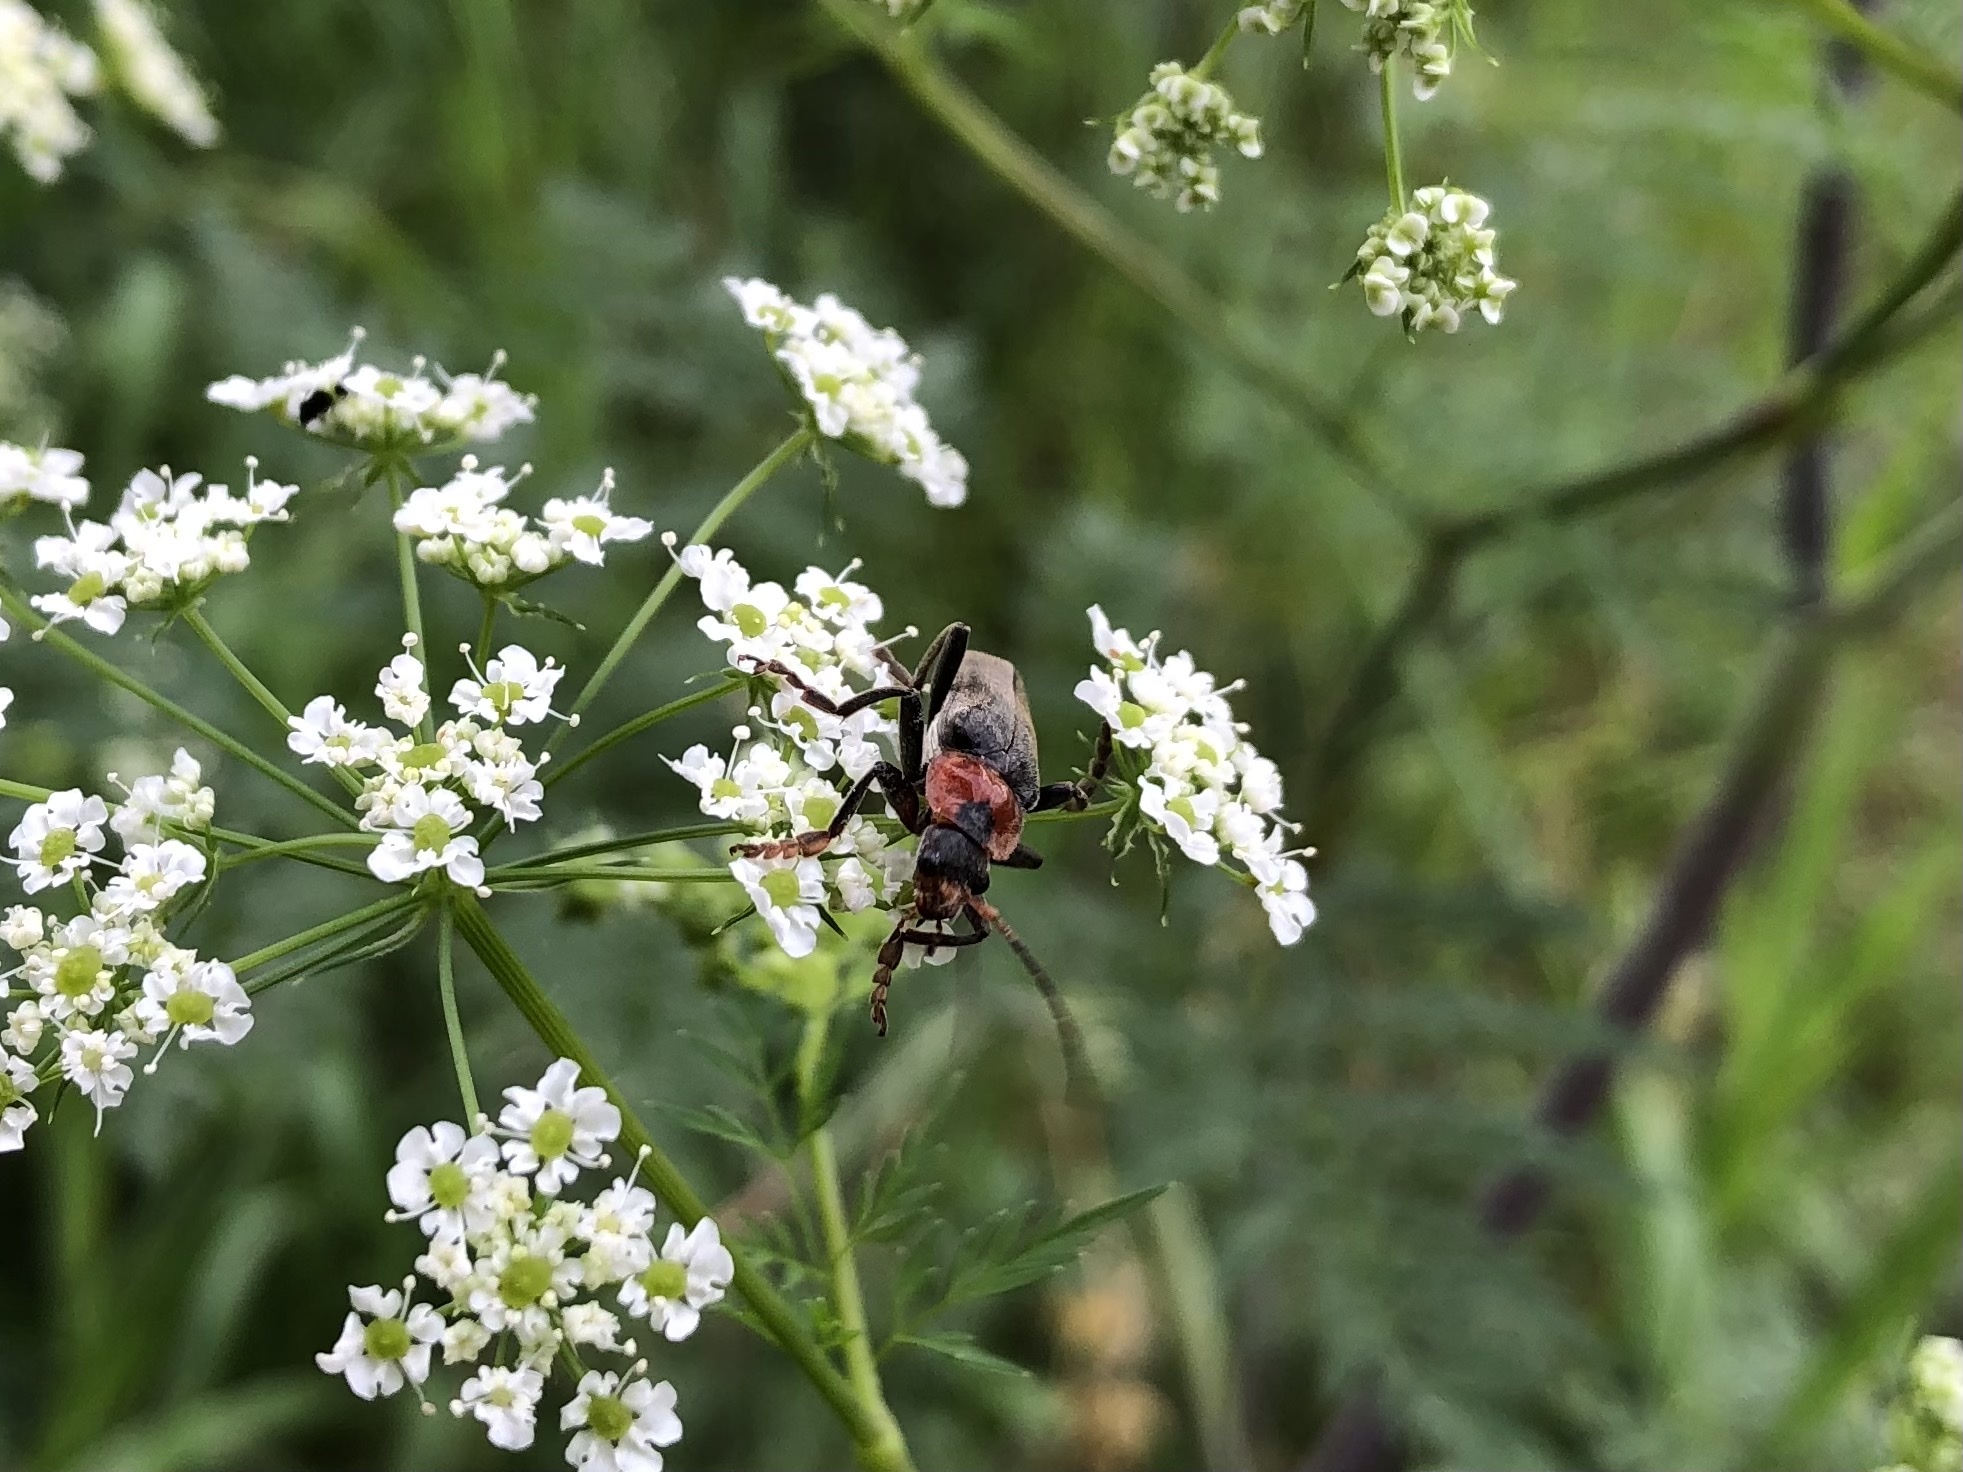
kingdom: Animalia
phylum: Arthropoda
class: Insecta
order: Coleoptera
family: Cantharidae
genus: Cantharis
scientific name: Cantharis fusca
